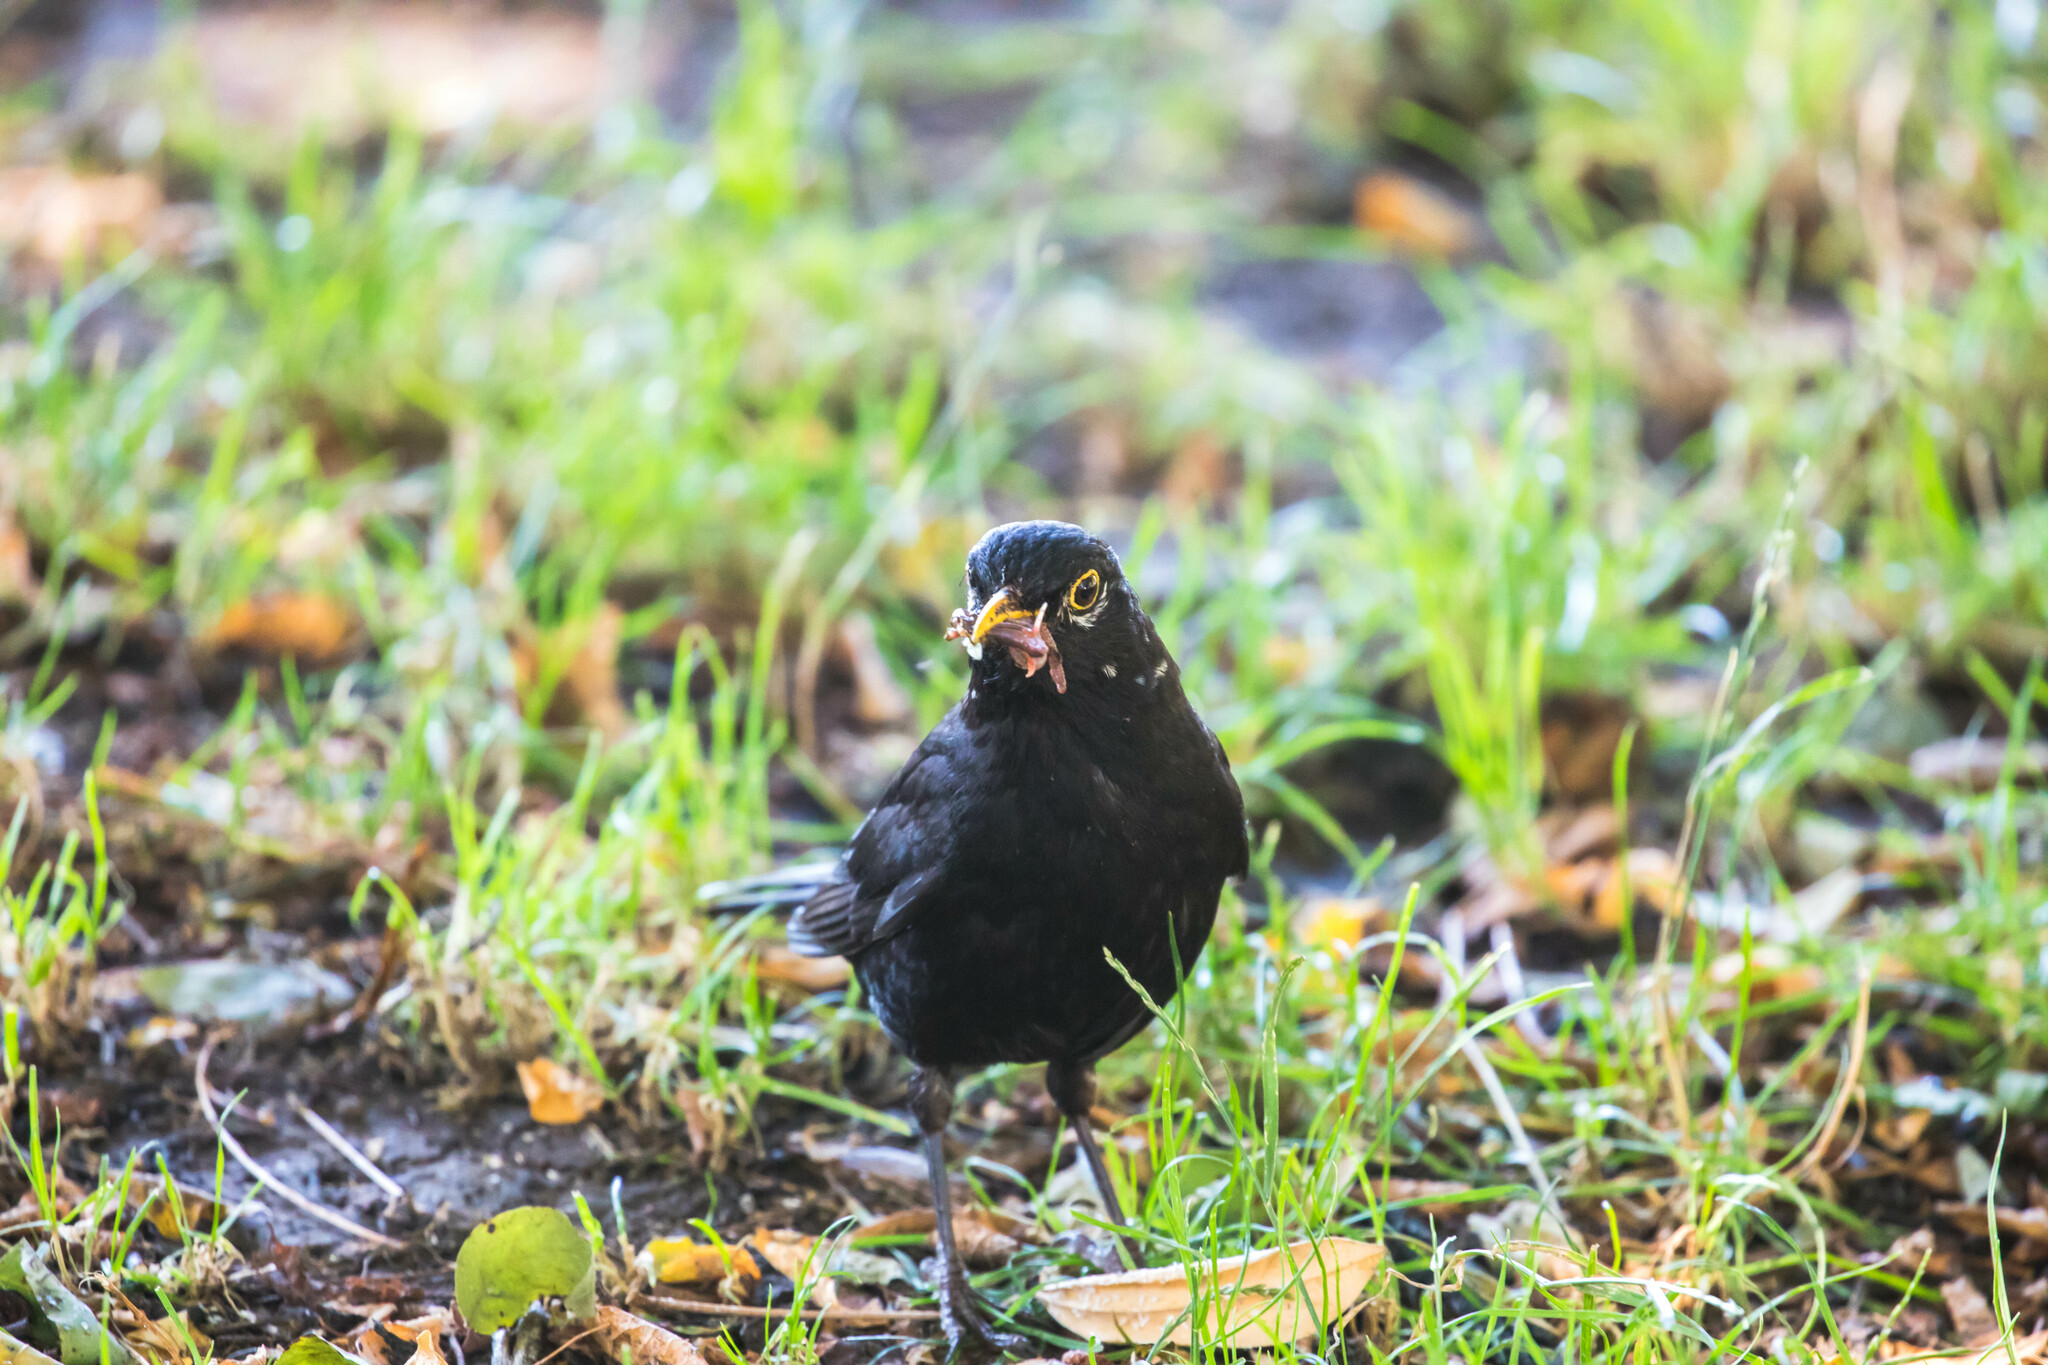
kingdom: Animalia
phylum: Chordata
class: Aves
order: Passeriformes
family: Turdidae
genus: Turdus
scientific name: Turdus merula
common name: Common blackbird
